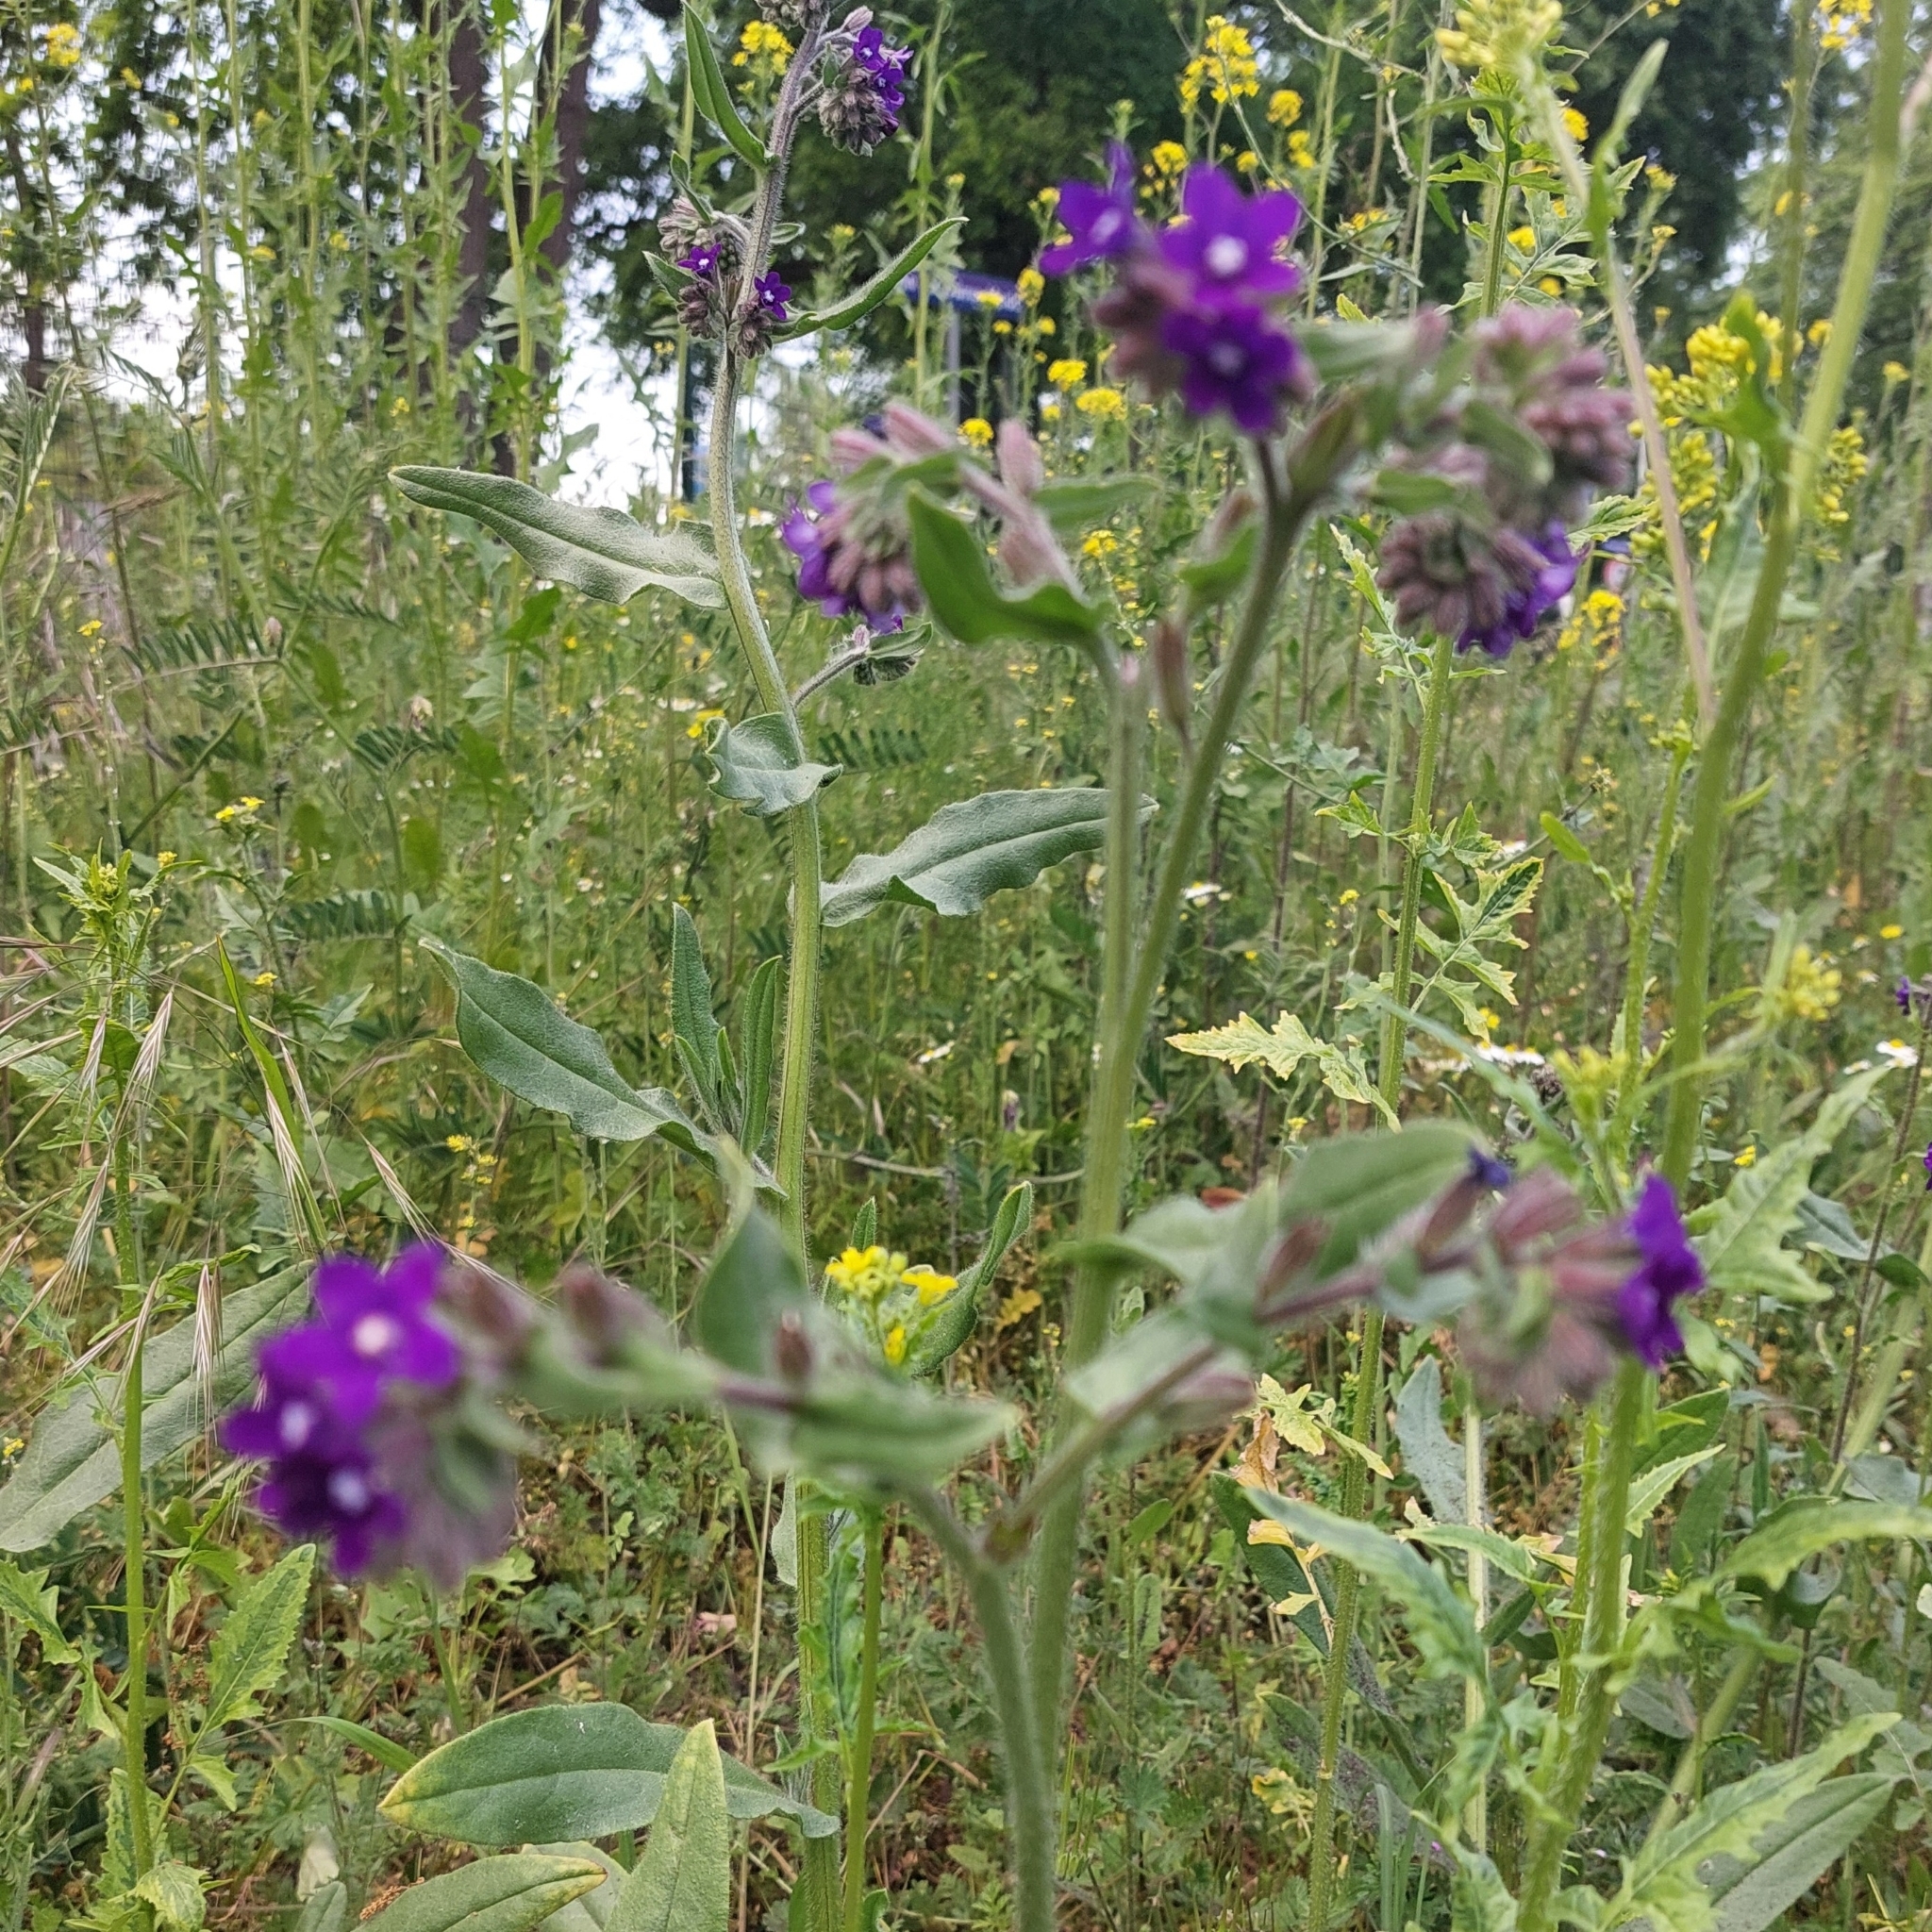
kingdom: Plantae
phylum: Tracheophyta
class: Magnoliopsida
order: Boraginales
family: Boraginaceae
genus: Anchusa
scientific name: Anchusa officinalis
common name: Alkanet
